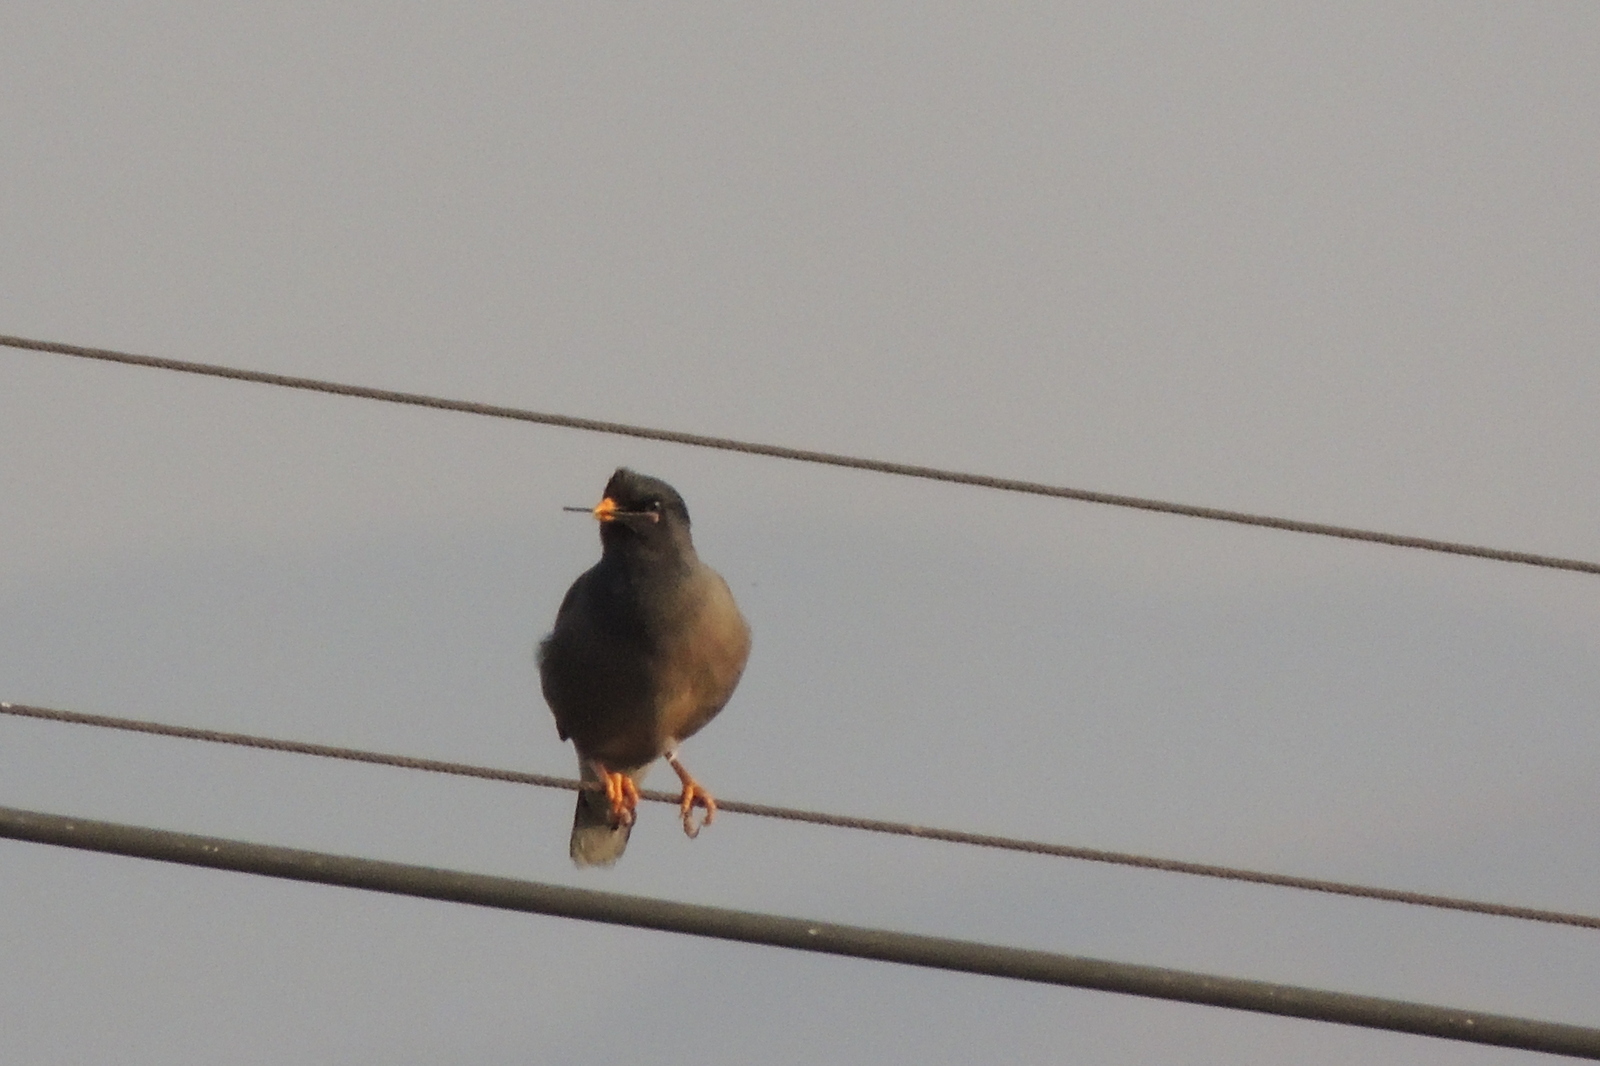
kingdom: Animalia
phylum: Chordata
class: Aves
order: Passeriformes
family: Sturnidae
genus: Acridotheres
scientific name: Acridotheres fuscus
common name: Jungle myna
